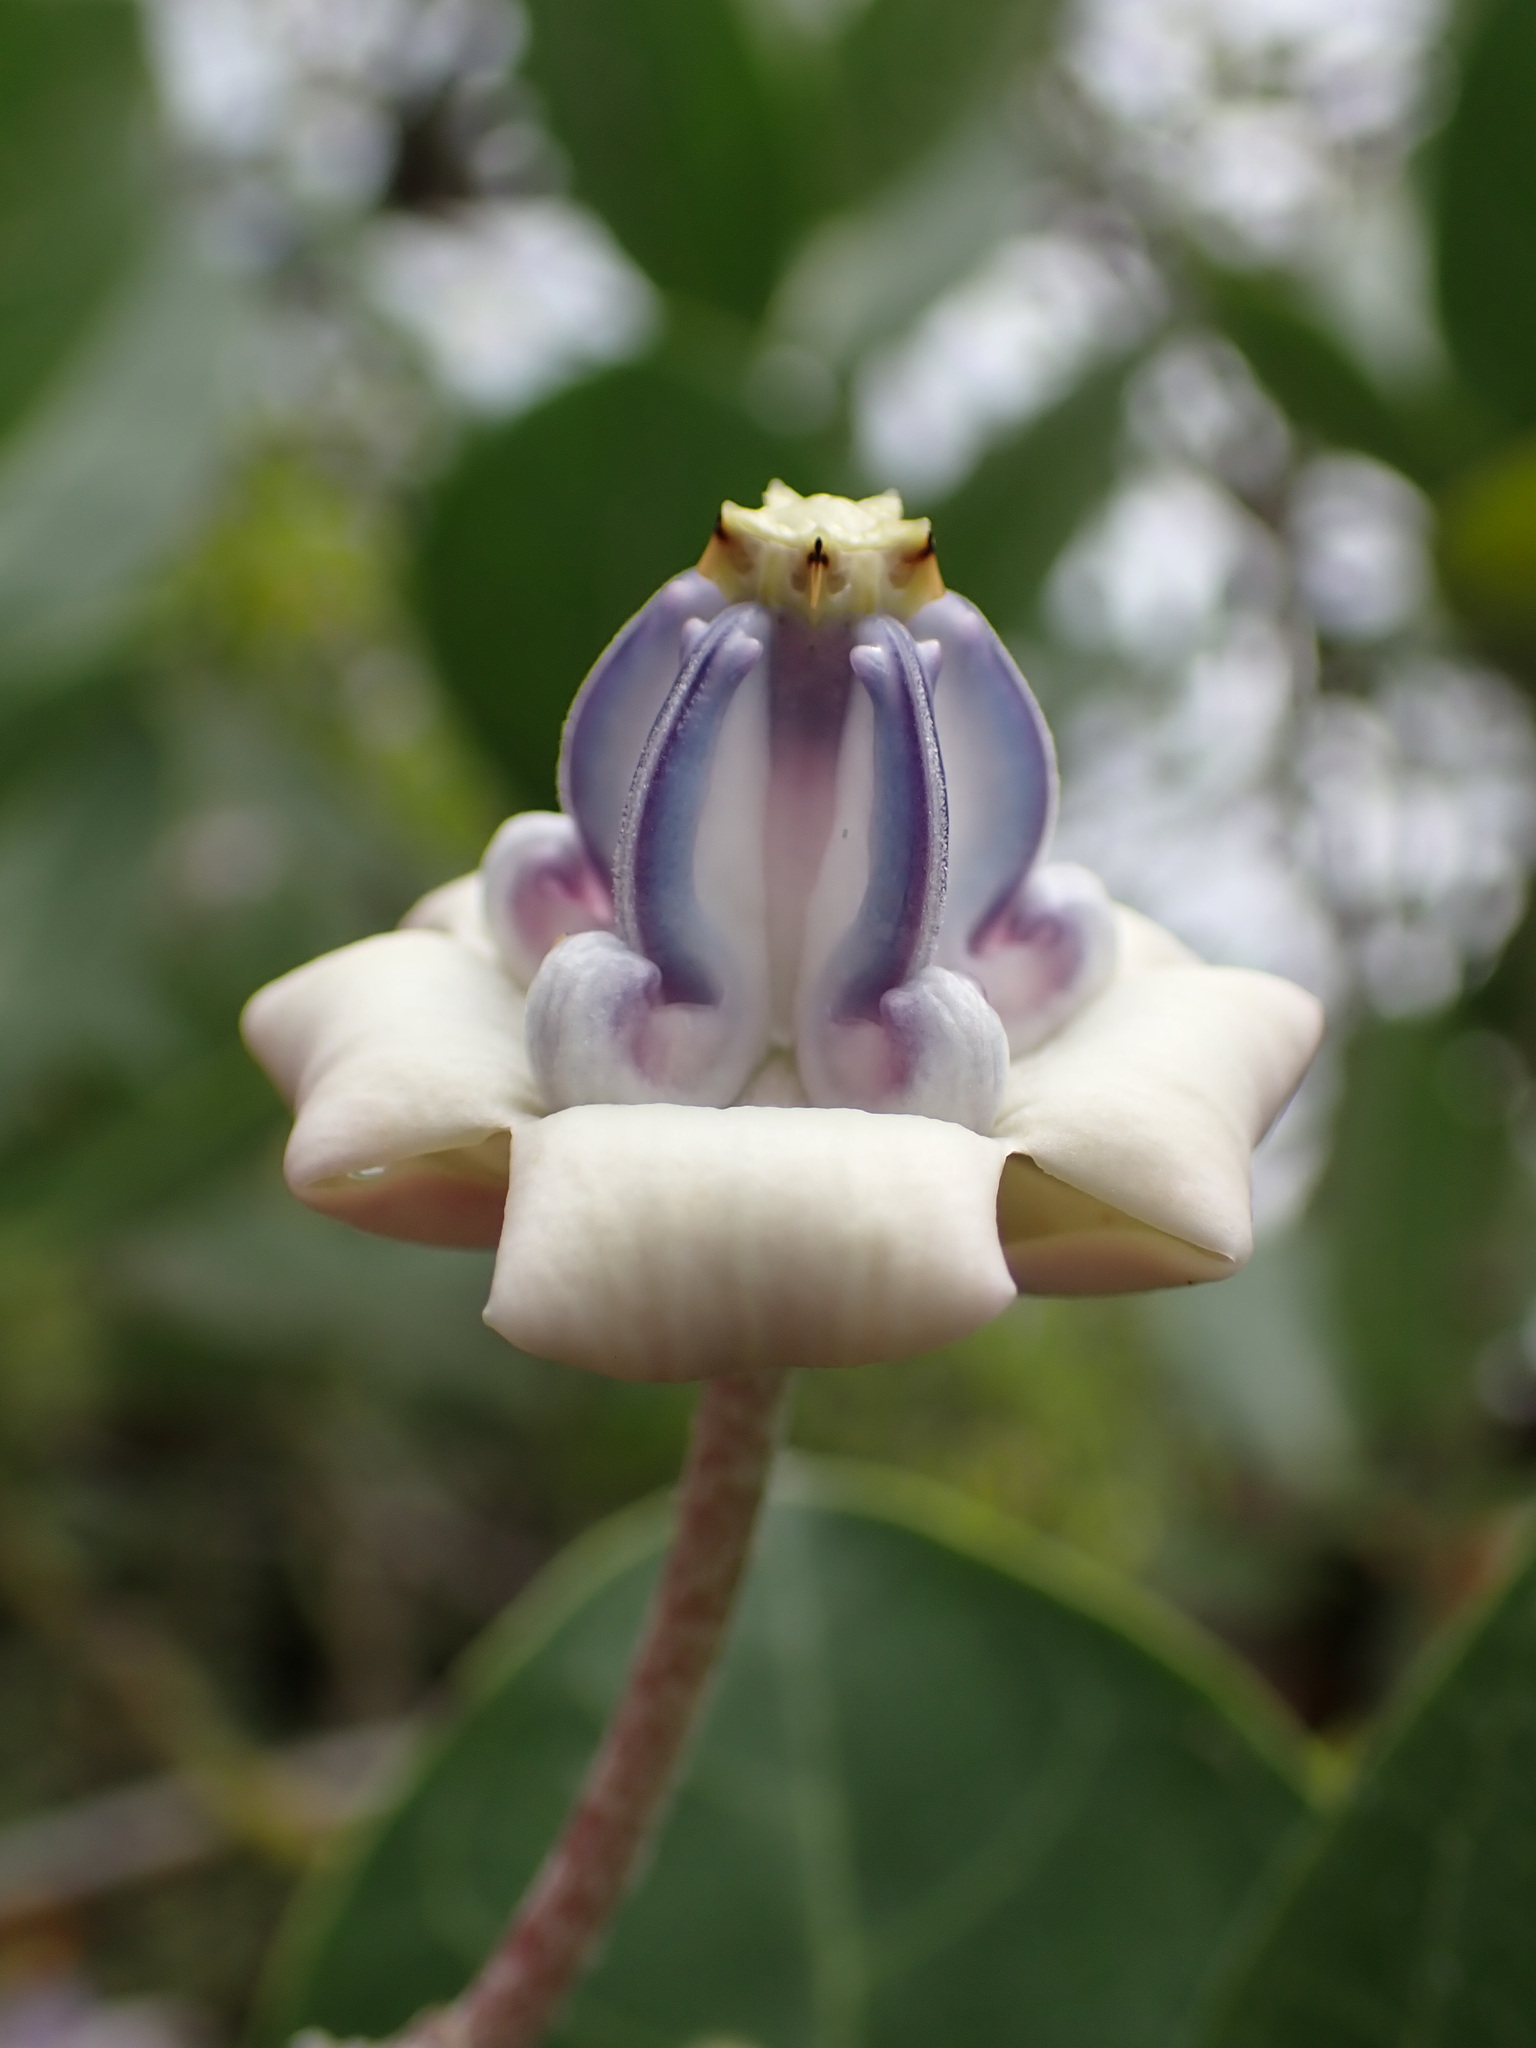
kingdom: Plantae
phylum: Tracheophyta
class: Magnoliopsida
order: Gentianales
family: Apocynaceae
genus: Calotropis
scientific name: Calotropis gigantea
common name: Crown flower
